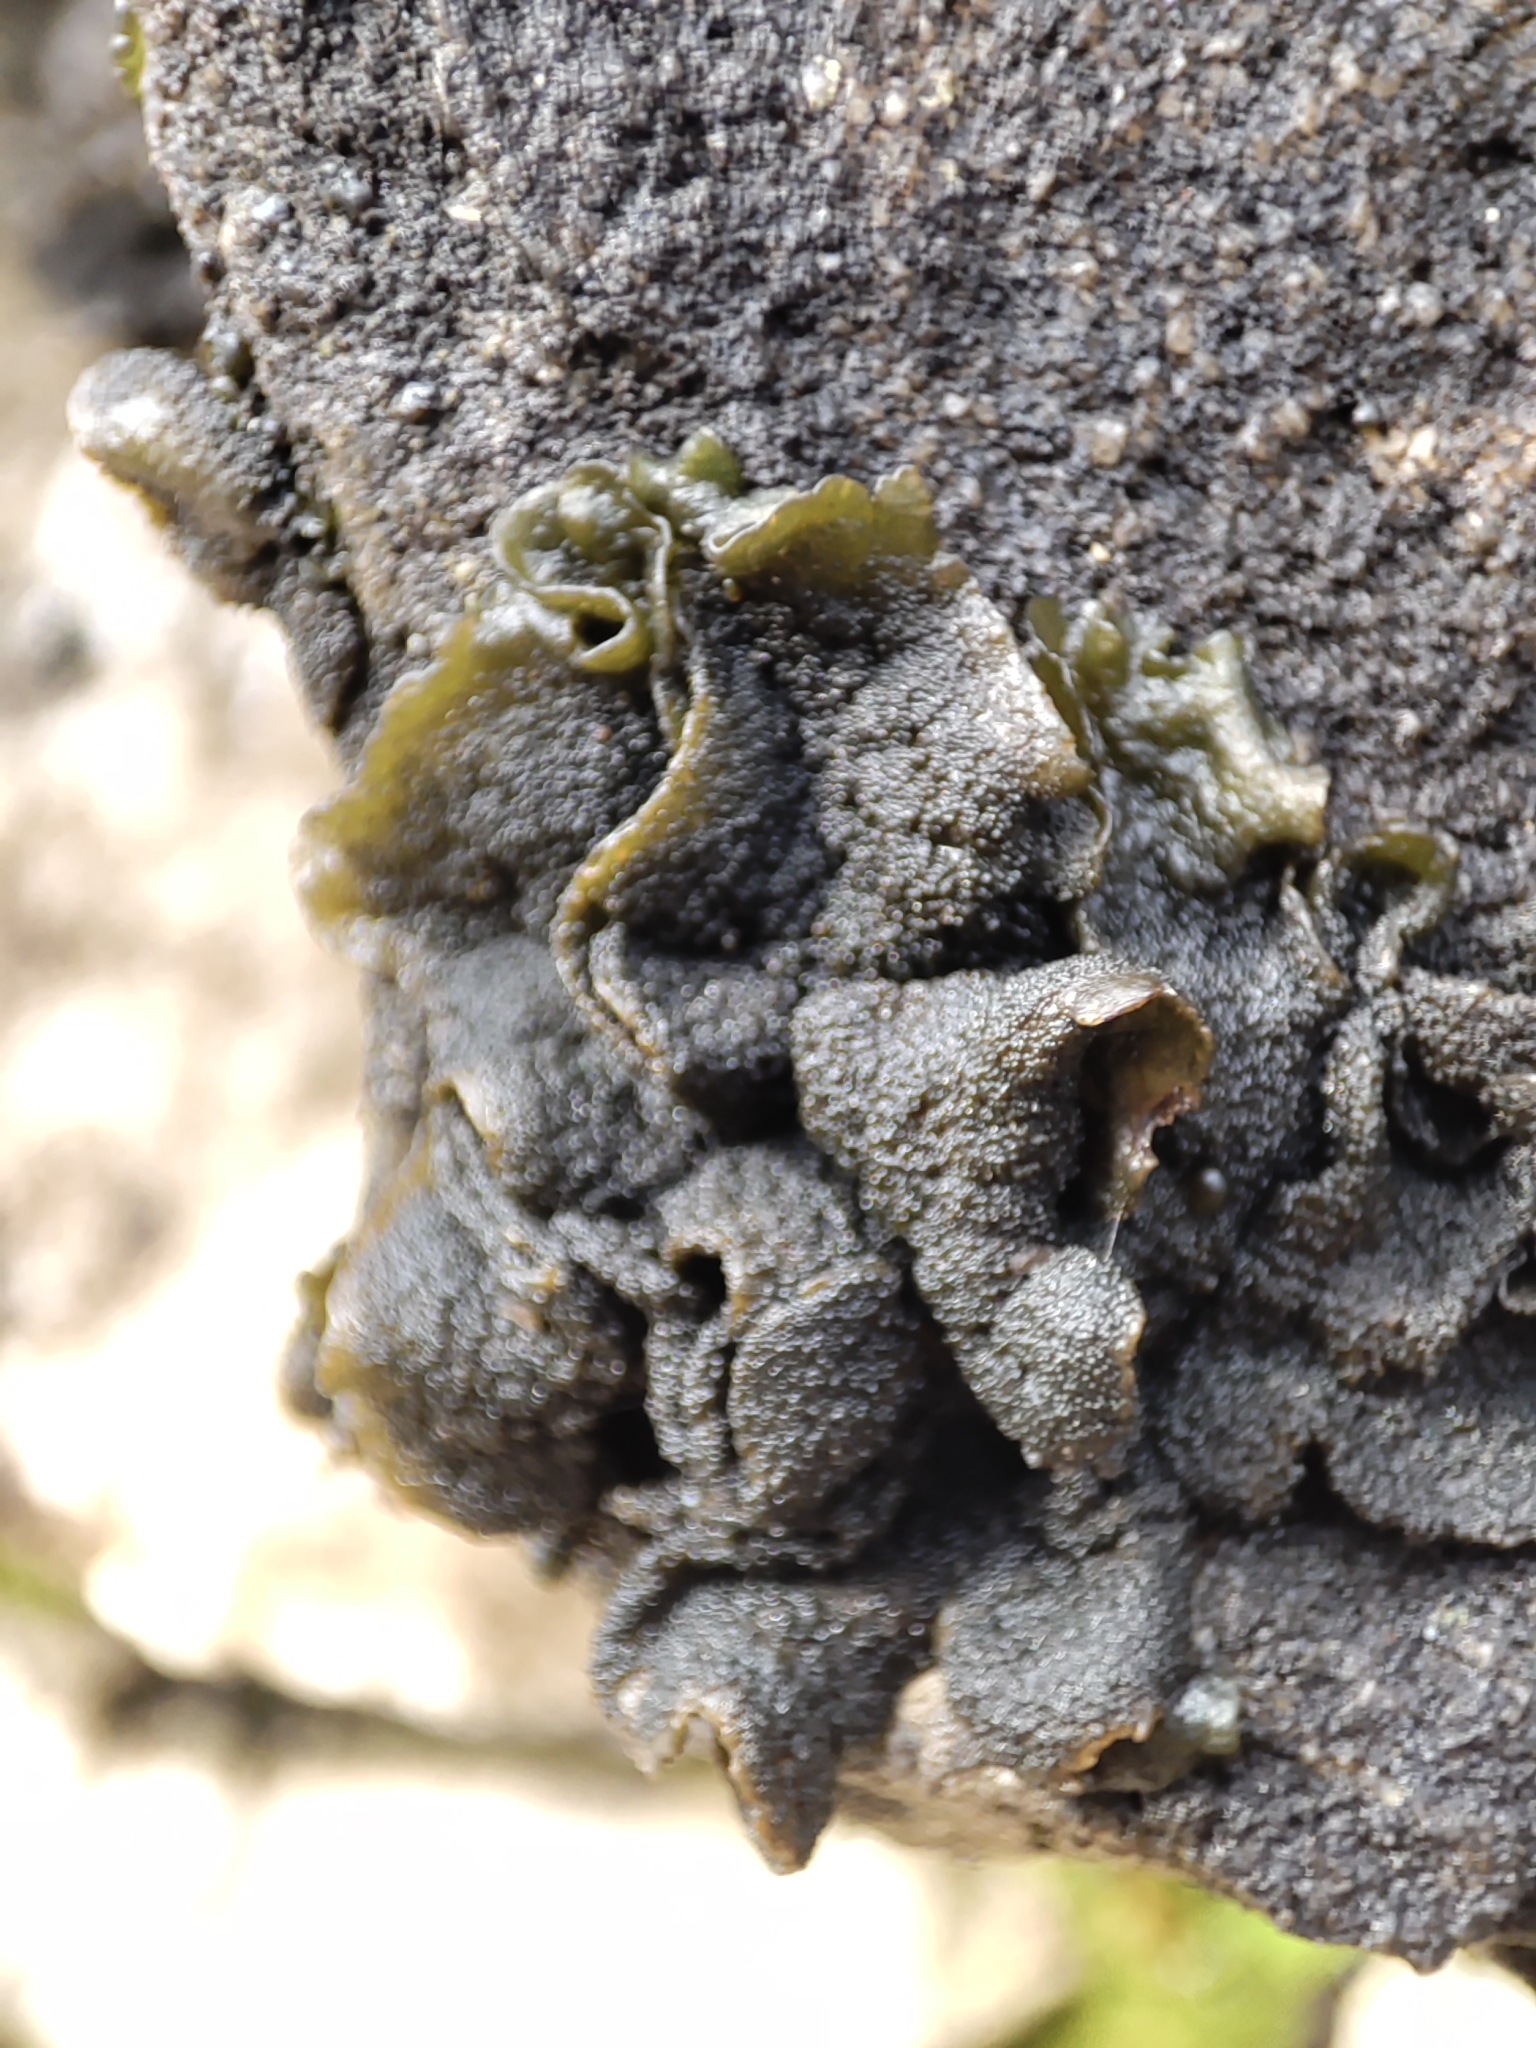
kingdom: Fungi
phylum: Ascomycota
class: Lecanoromycetes
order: Peltigerales
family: Collemataceae
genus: Enchylium
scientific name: Enchylium tenax
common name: Jelly lichen
